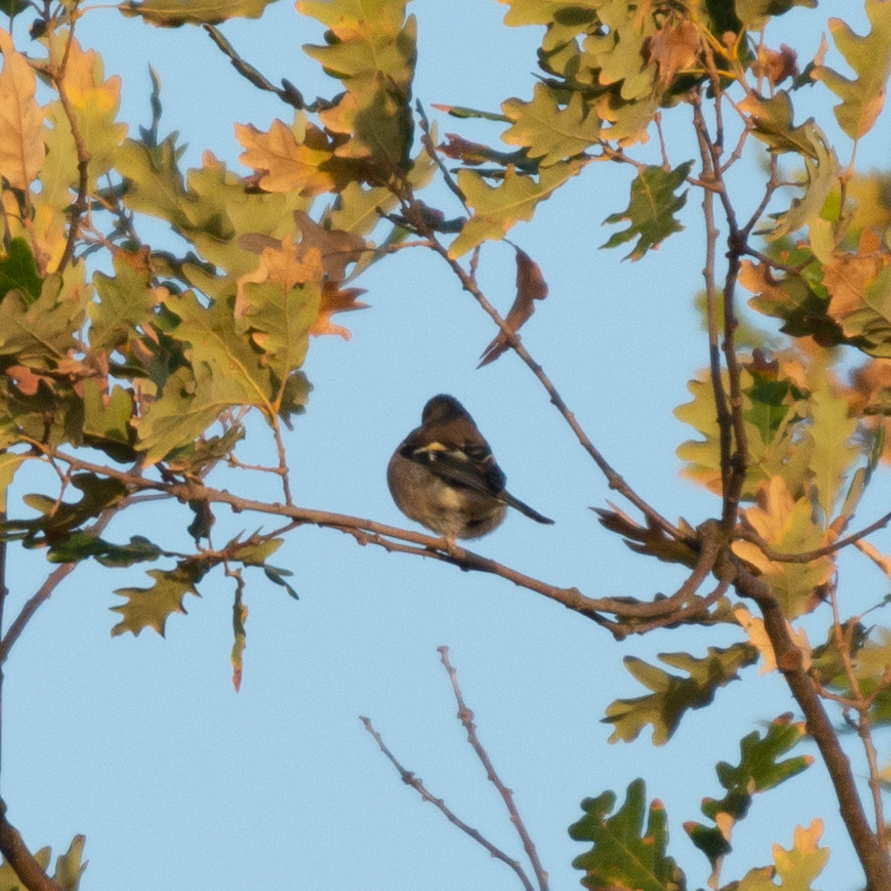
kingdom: Animalia
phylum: Chordata
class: Aves
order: Passeriformes
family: Fringillidae
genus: Fringilla
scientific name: Fringilla coelebs
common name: Common chaffinch
